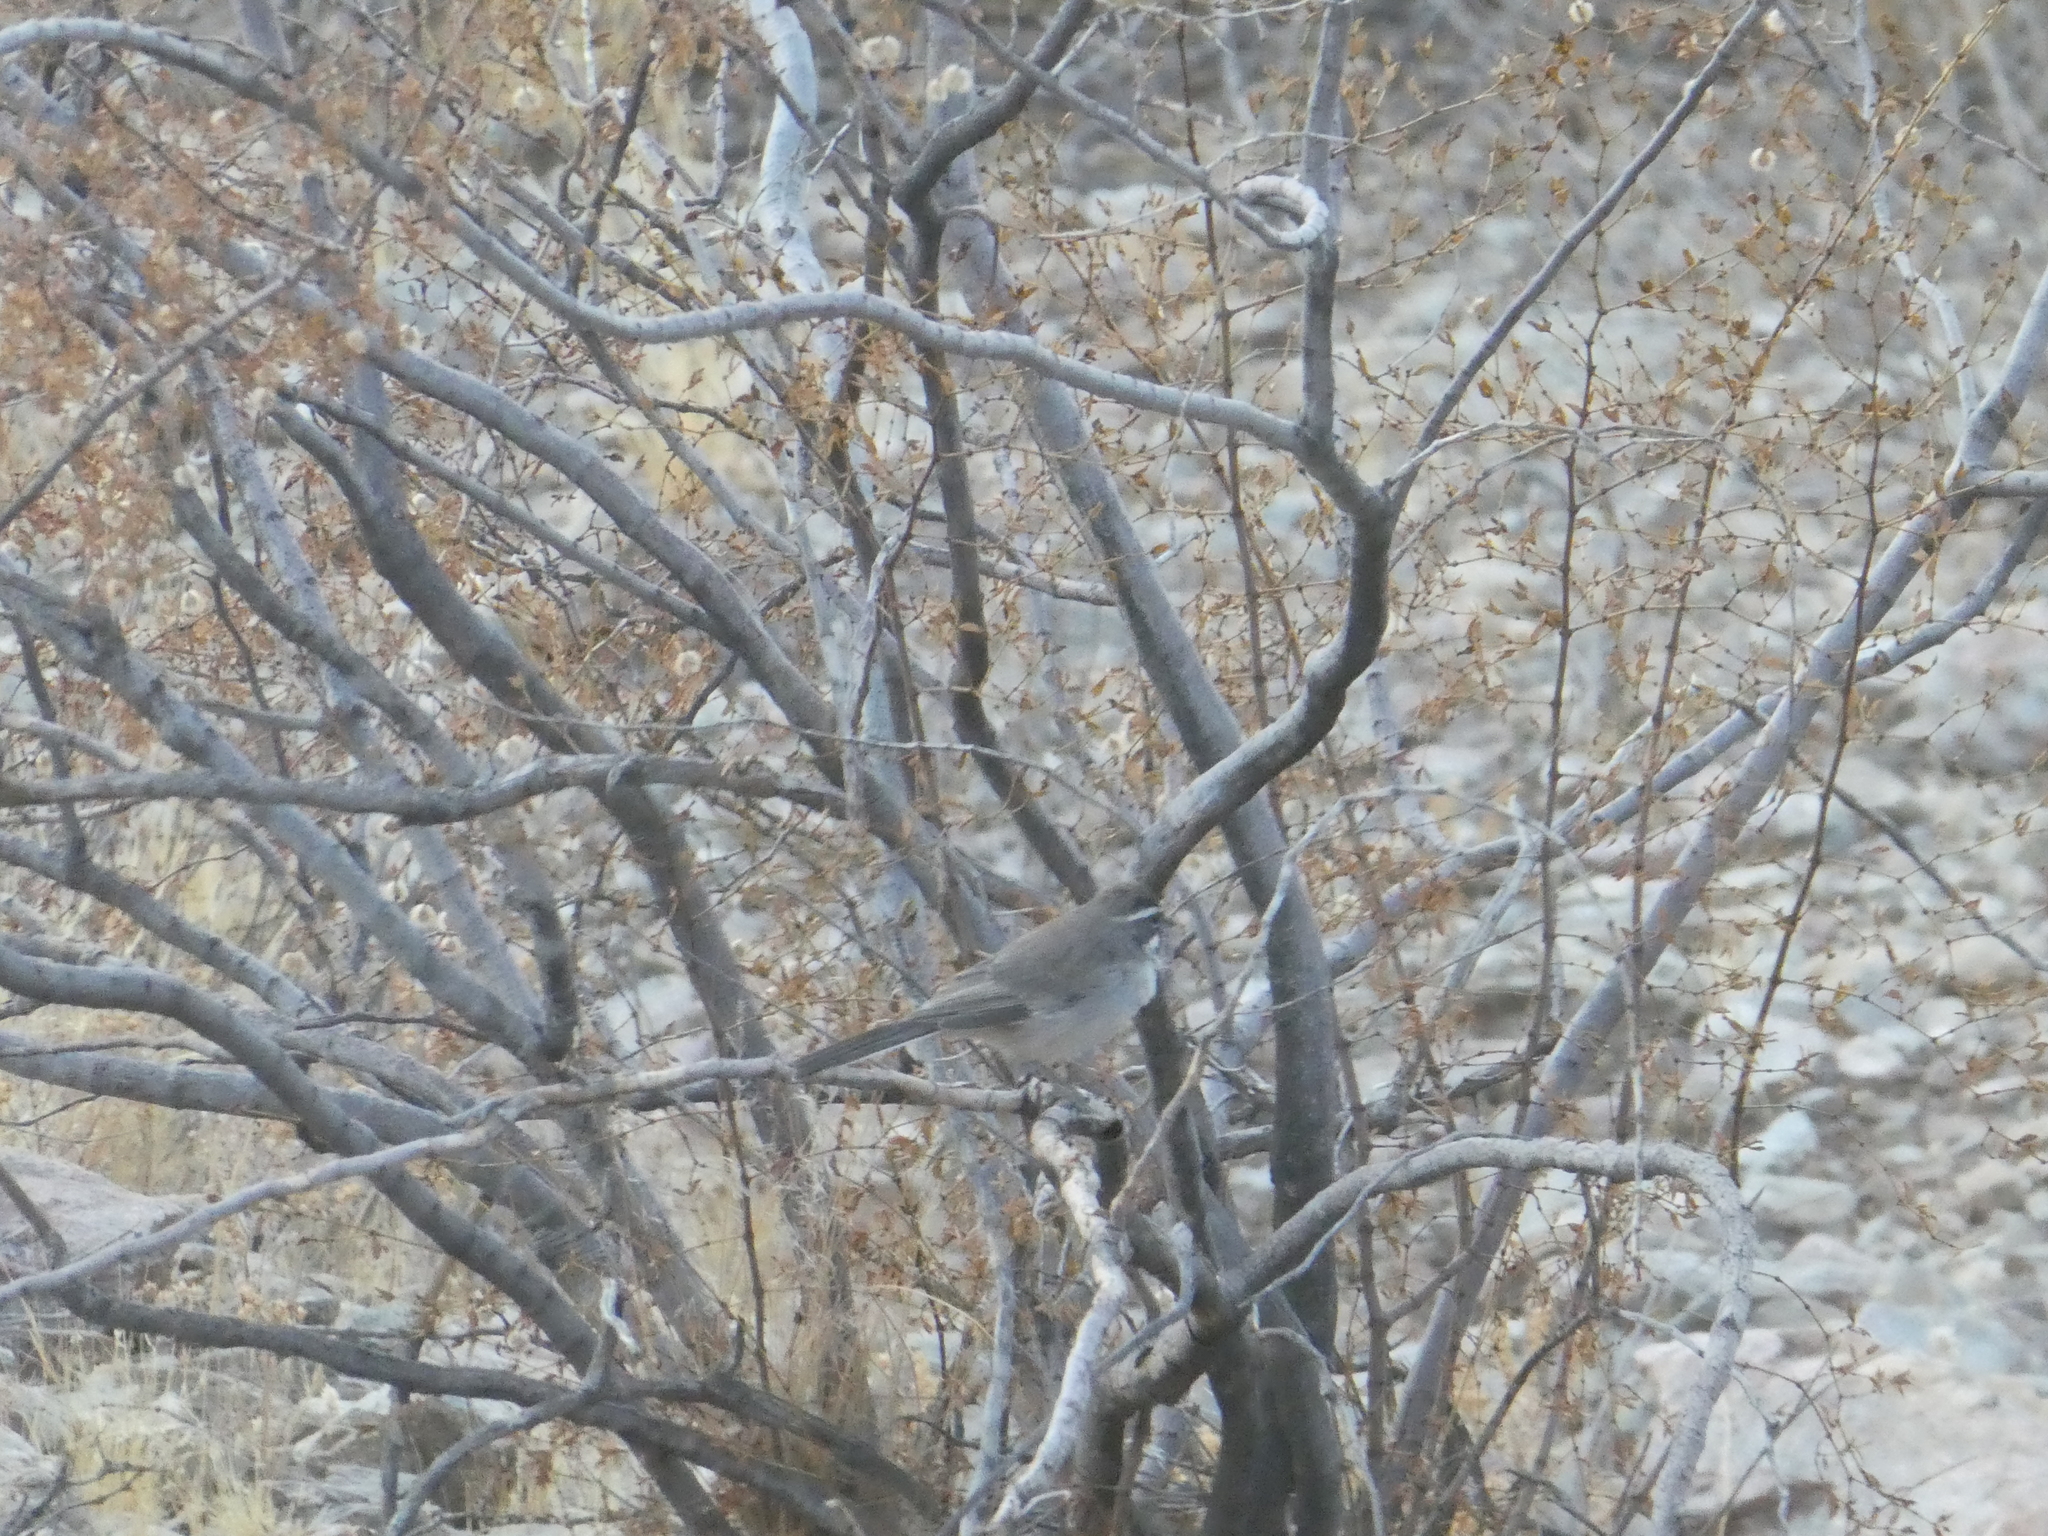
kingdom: Animalia
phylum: Chordata
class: Aves
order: Passeriformes
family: Passerellidae
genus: Amphispiza
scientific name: Amphispiza bilineata
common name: Black-throated sparrow
